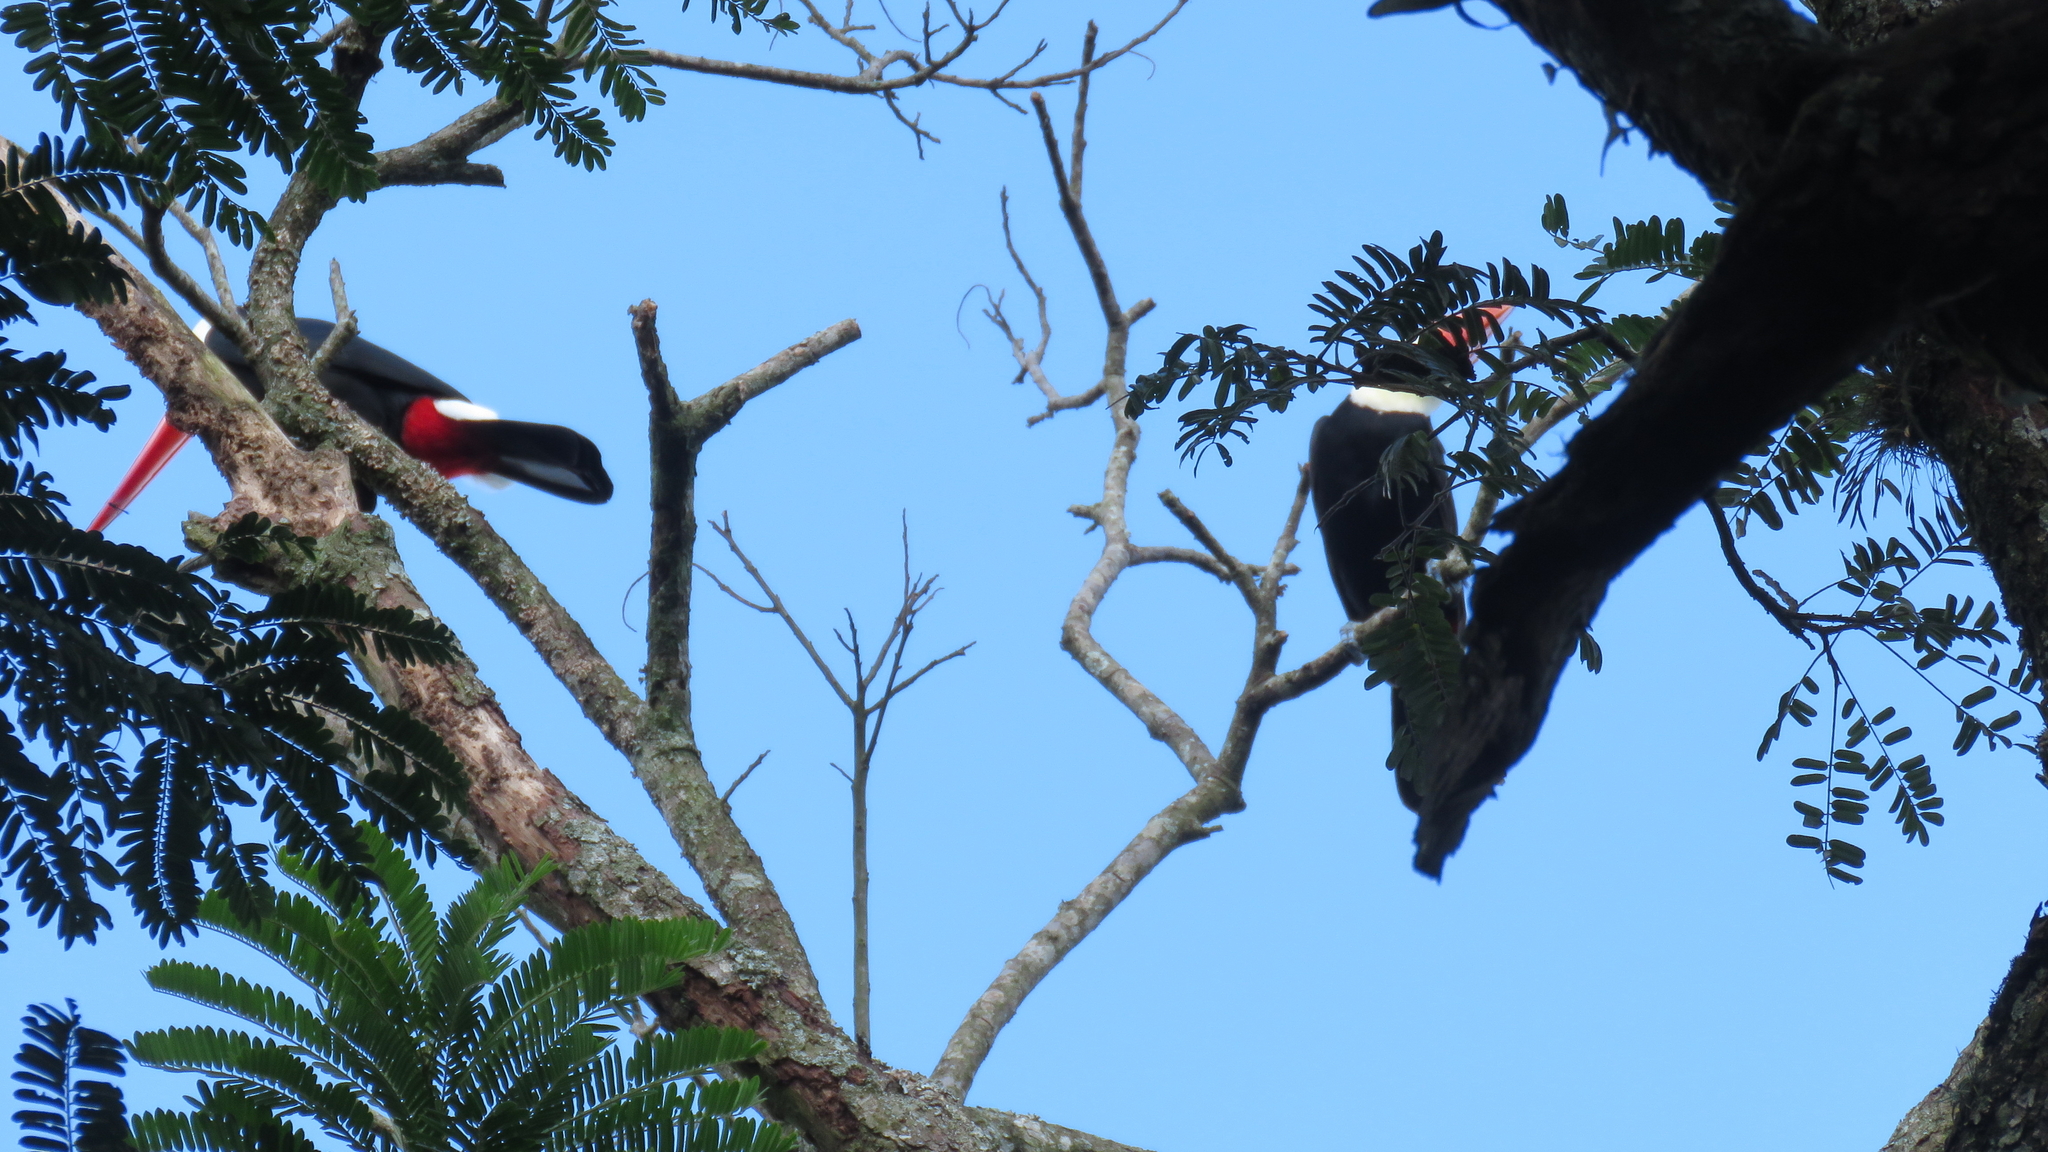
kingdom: Animalia
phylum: Chordata
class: Aves
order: Piciformes
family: Ramphastidae
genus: Ramphastos
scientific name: Ramphastos toco
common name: Toco toucan
